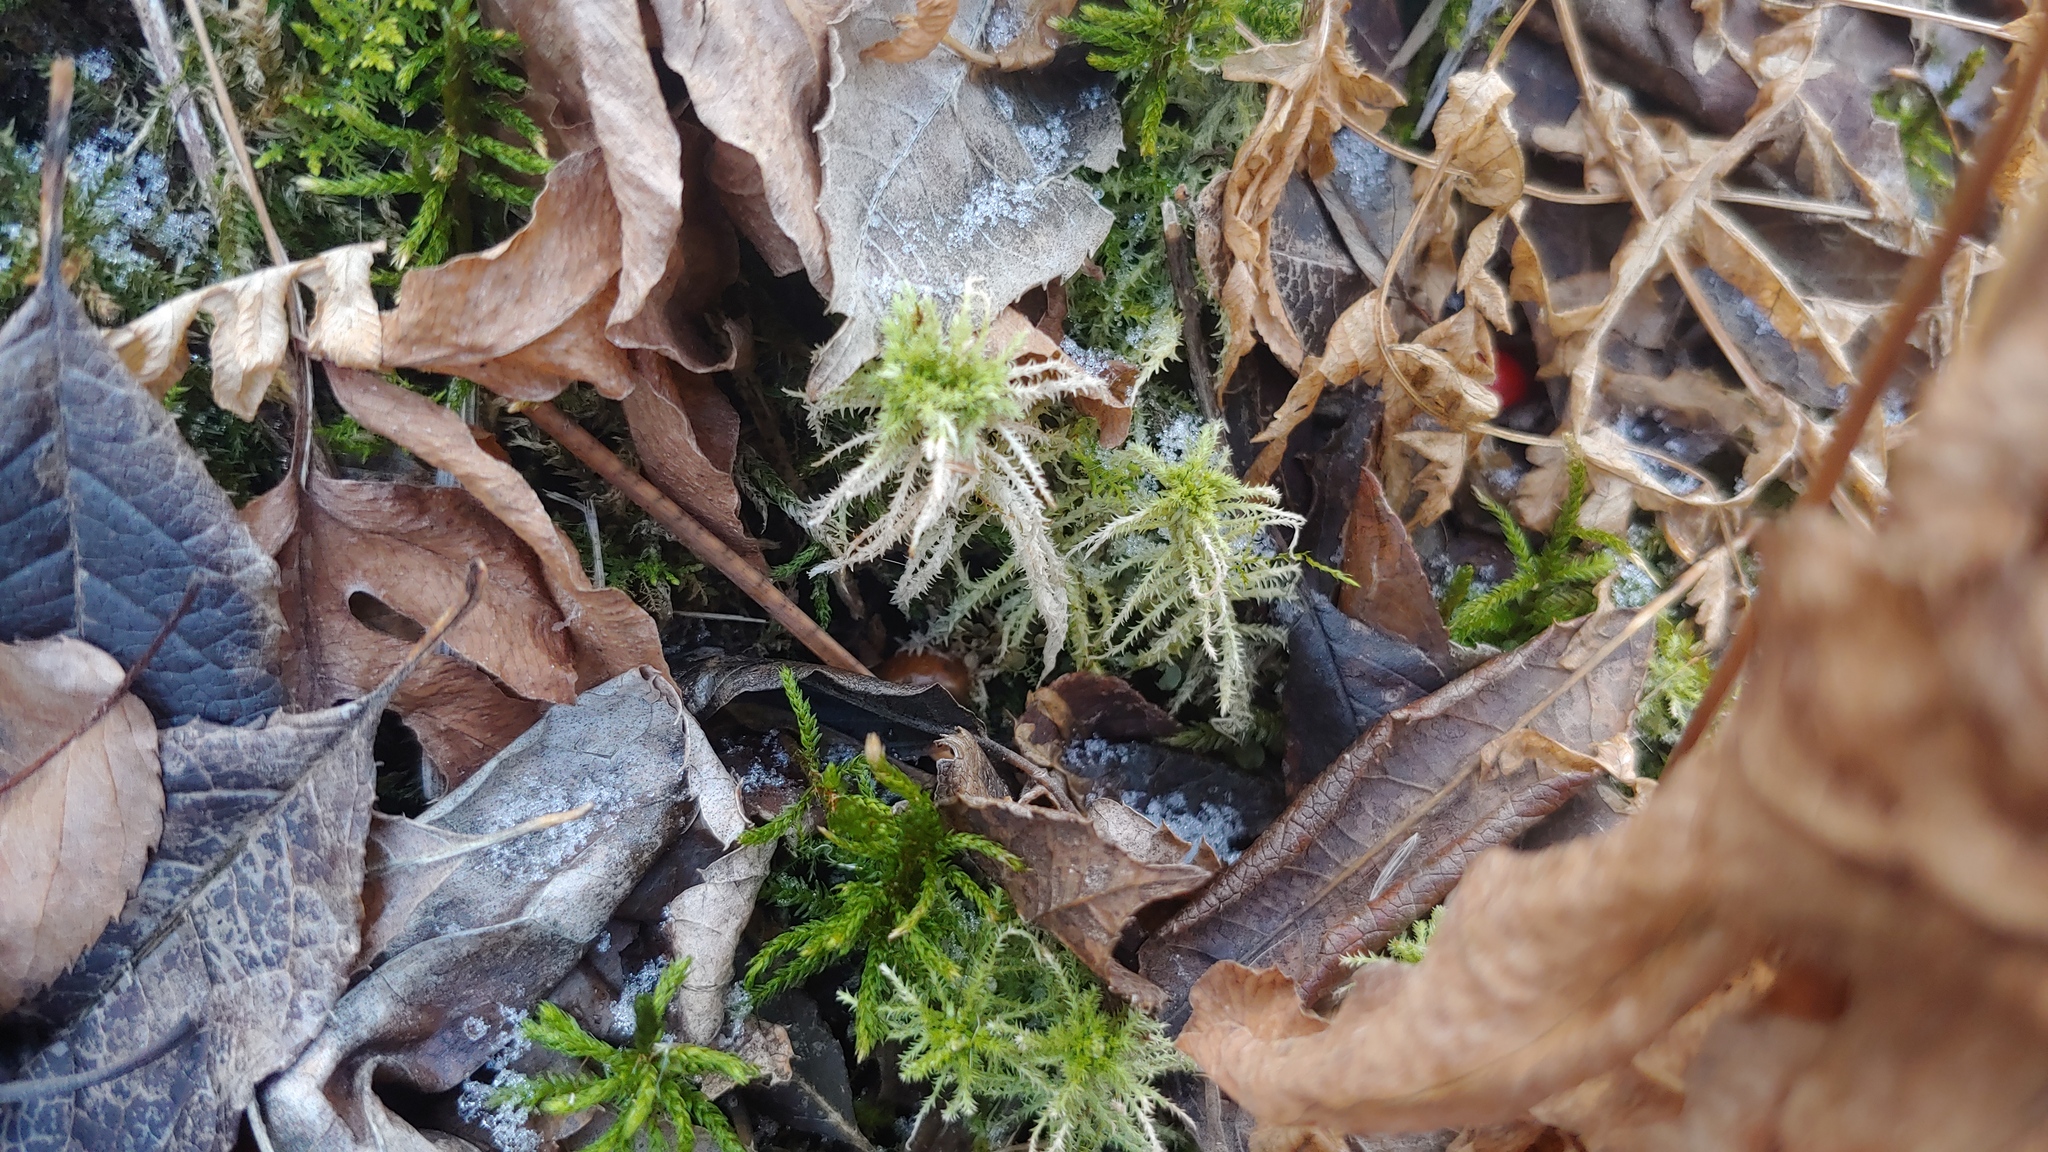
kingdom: Plantae
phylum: Bryophyta
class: Sphagnopsida
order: Sphagnales
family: Sphagnaceae
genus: Sphagnum
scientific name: Sphagnum squarrosum
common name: Shaggy peat moss
